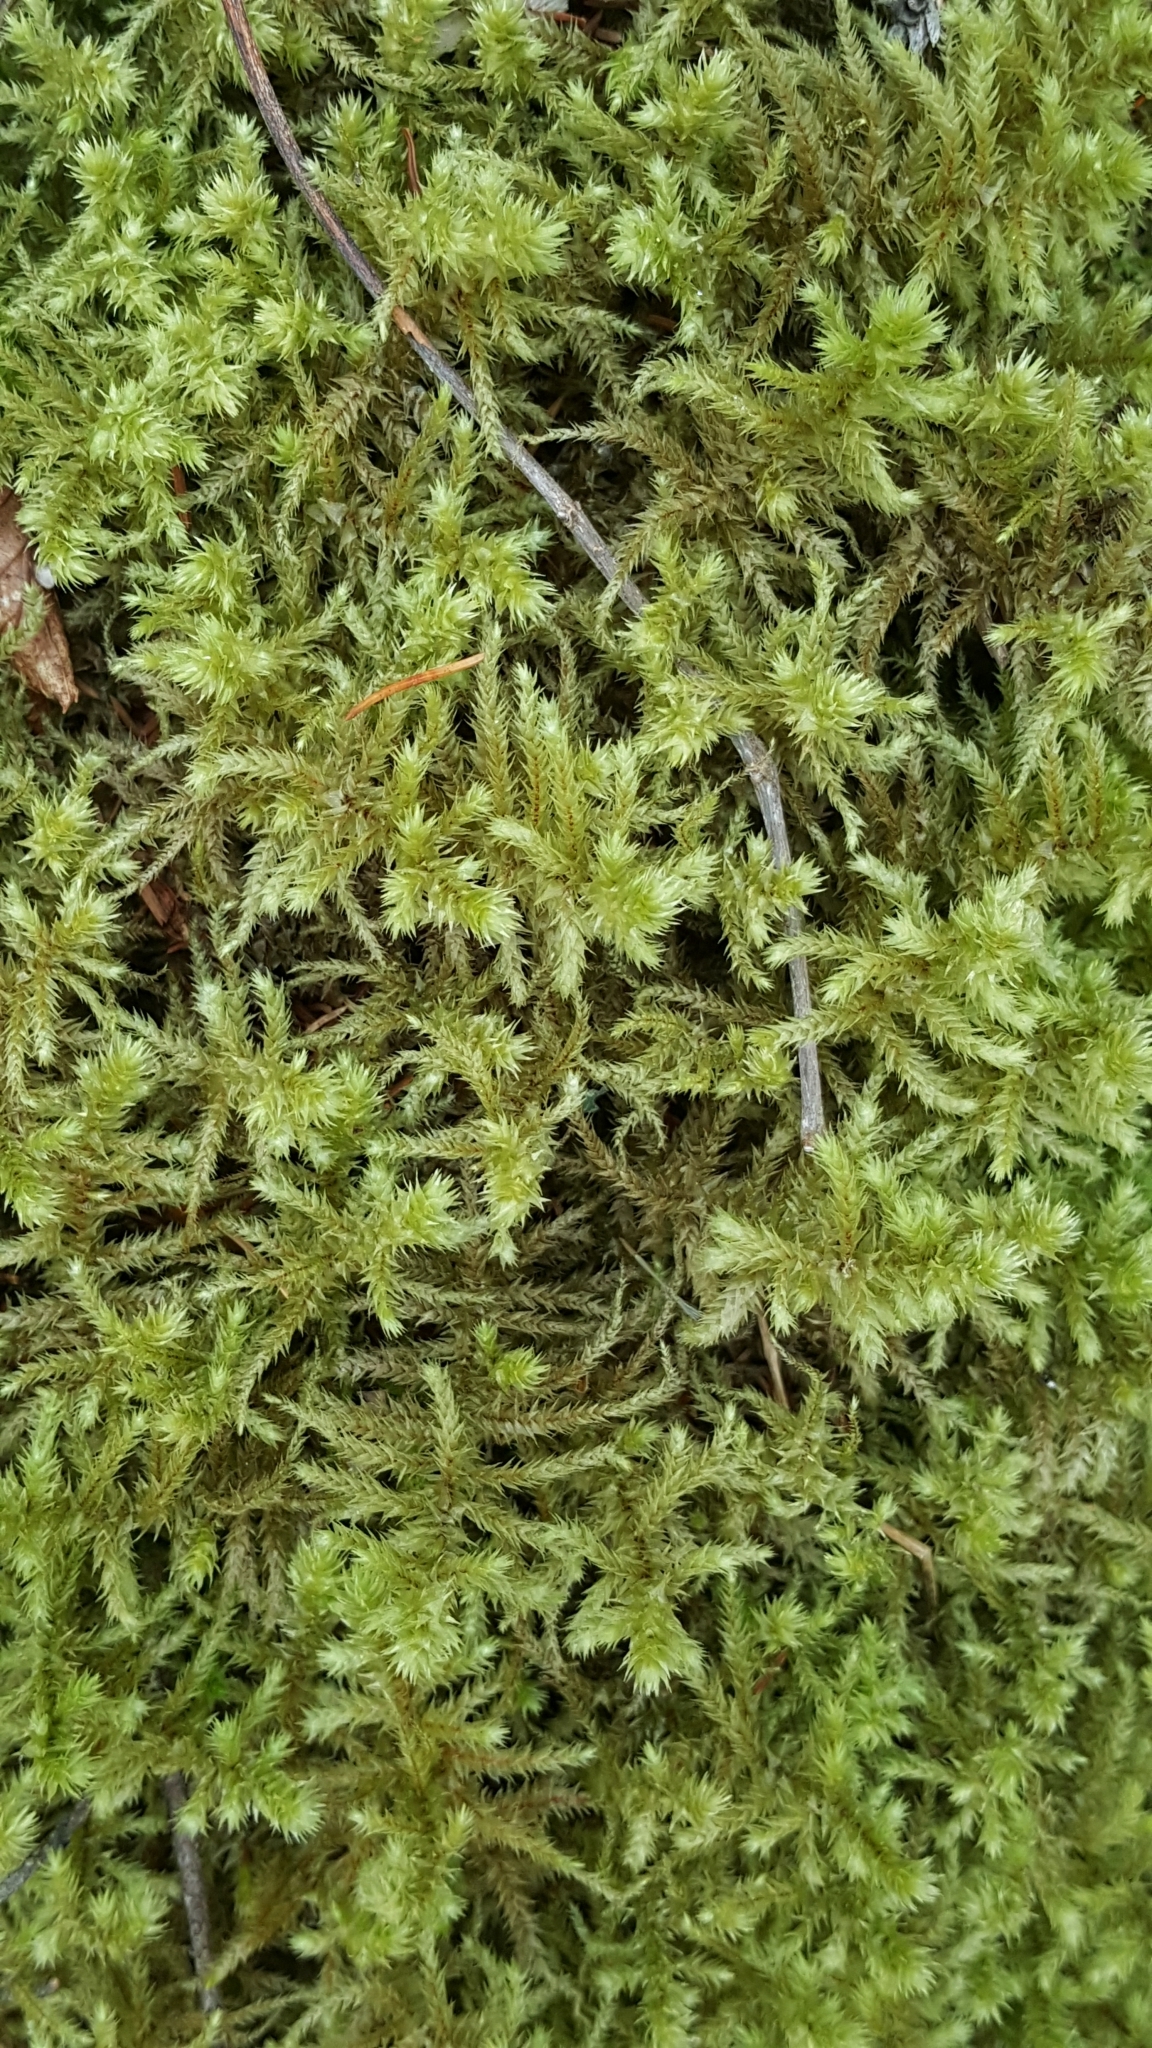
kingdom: Plantae
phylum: Bryophyta
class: Bryopsida
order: Hypnales
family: Hylocomiaceae
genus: Hylocomiadelphus
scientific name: Hylocomiadelphus triquetrus
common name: Rough goose neck moss
